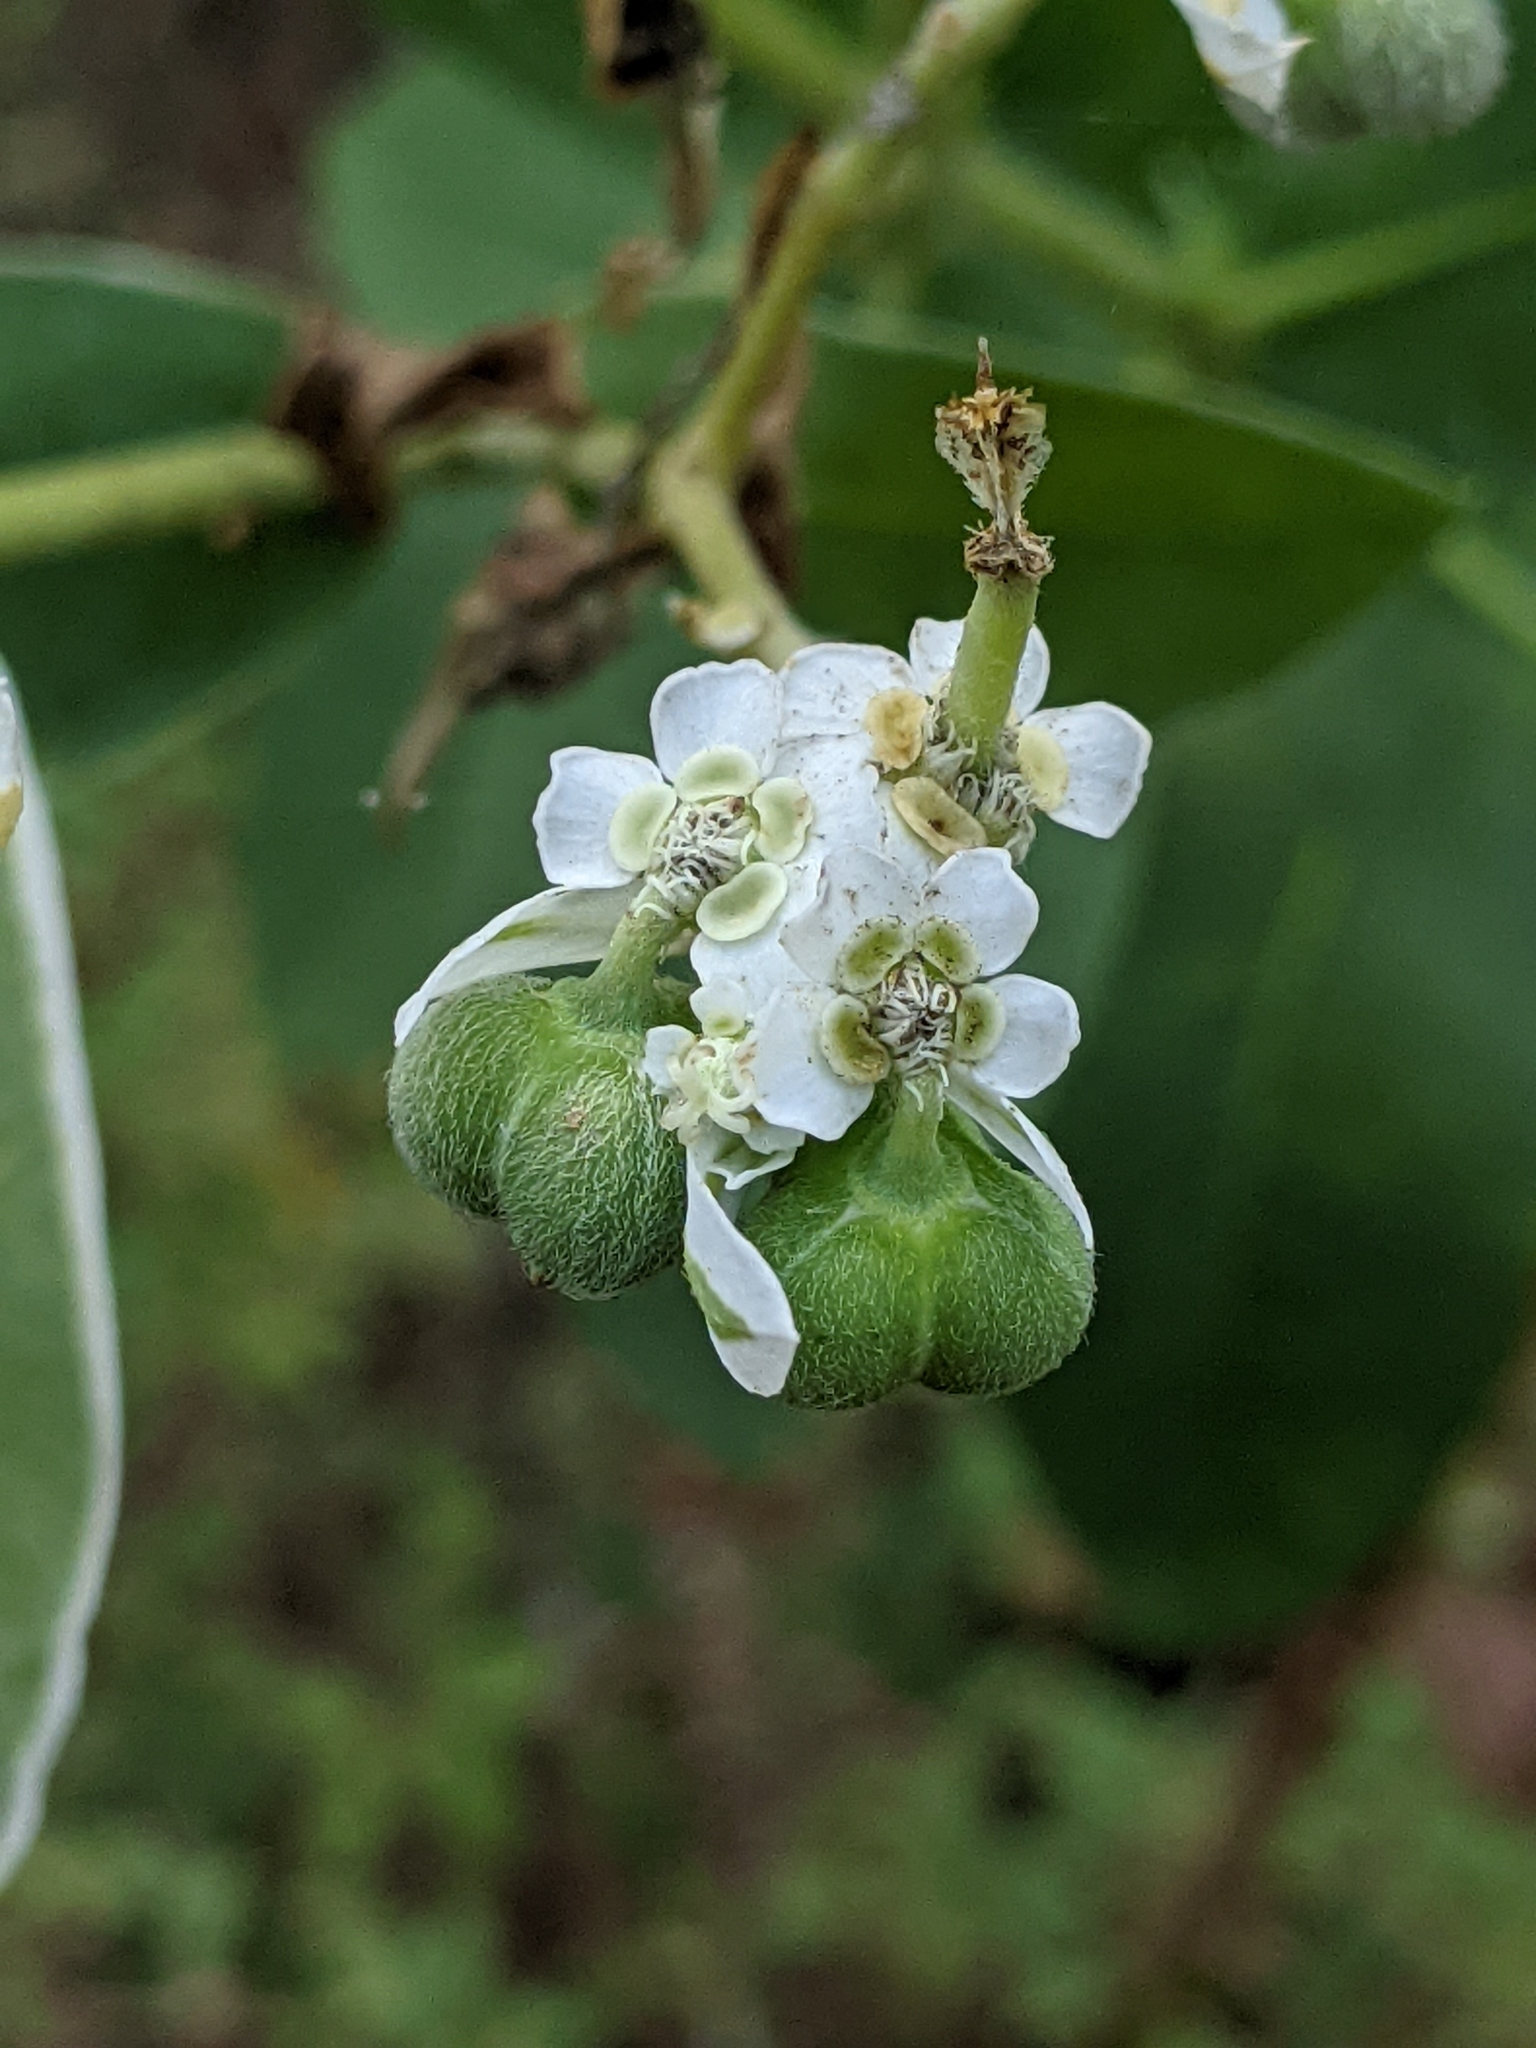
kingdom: Plantae
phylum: Tracheophyta
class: Magnoliopsida
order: Malpighiales
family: Euphorbiaceae
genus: Euphorbia
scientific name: Euphorbia marginata
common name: Ghostweed
